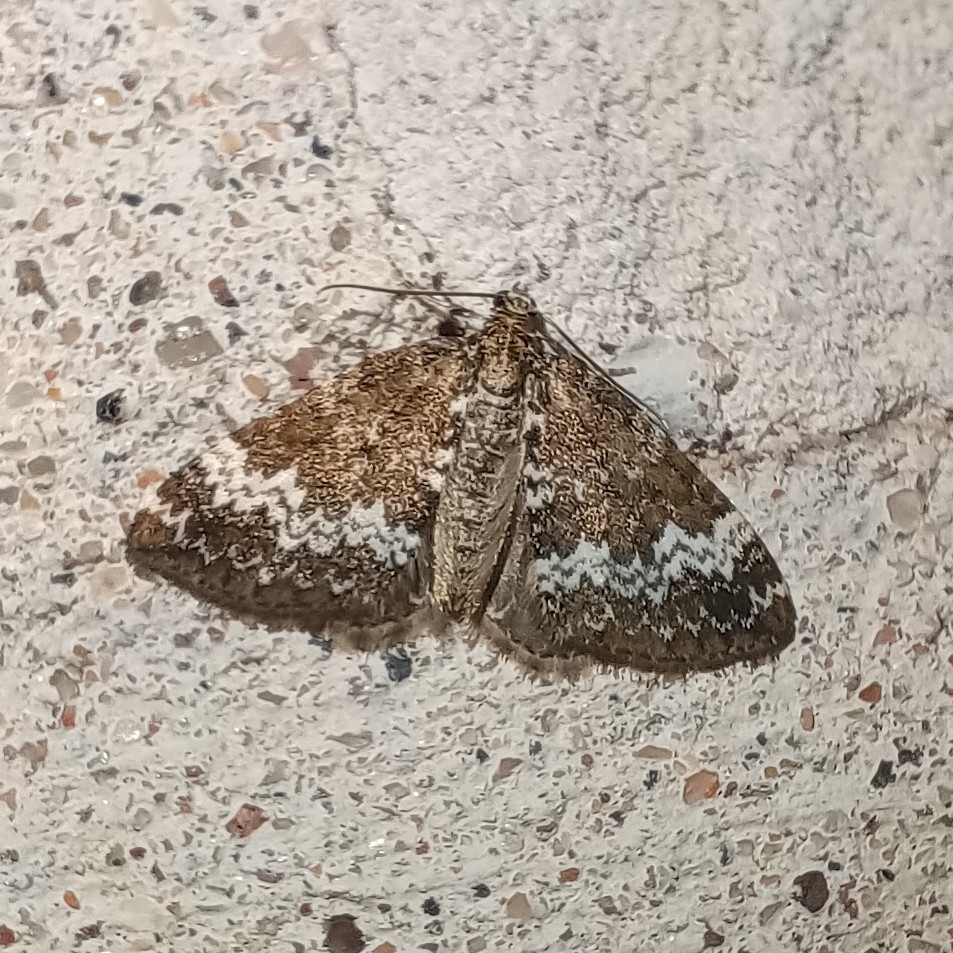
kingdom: Animalia
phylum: Arthropoda
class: Insecta
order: Lepidoptera
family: Geometridae
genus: Perizoma
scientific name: Perizoma alchemillata
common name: Small rivulet
